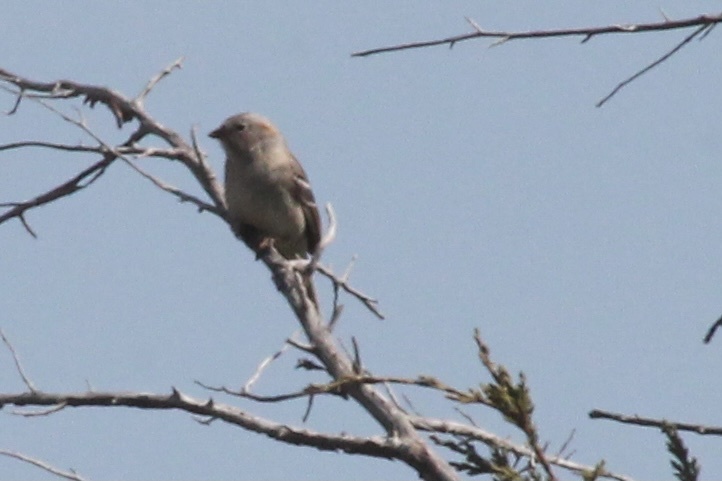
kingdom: Animalia
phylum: Chordata
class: Aves
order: Passeriformes
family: Passerellidae
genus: Spizella
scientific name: Spizella pusilla
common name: Field sparrow
